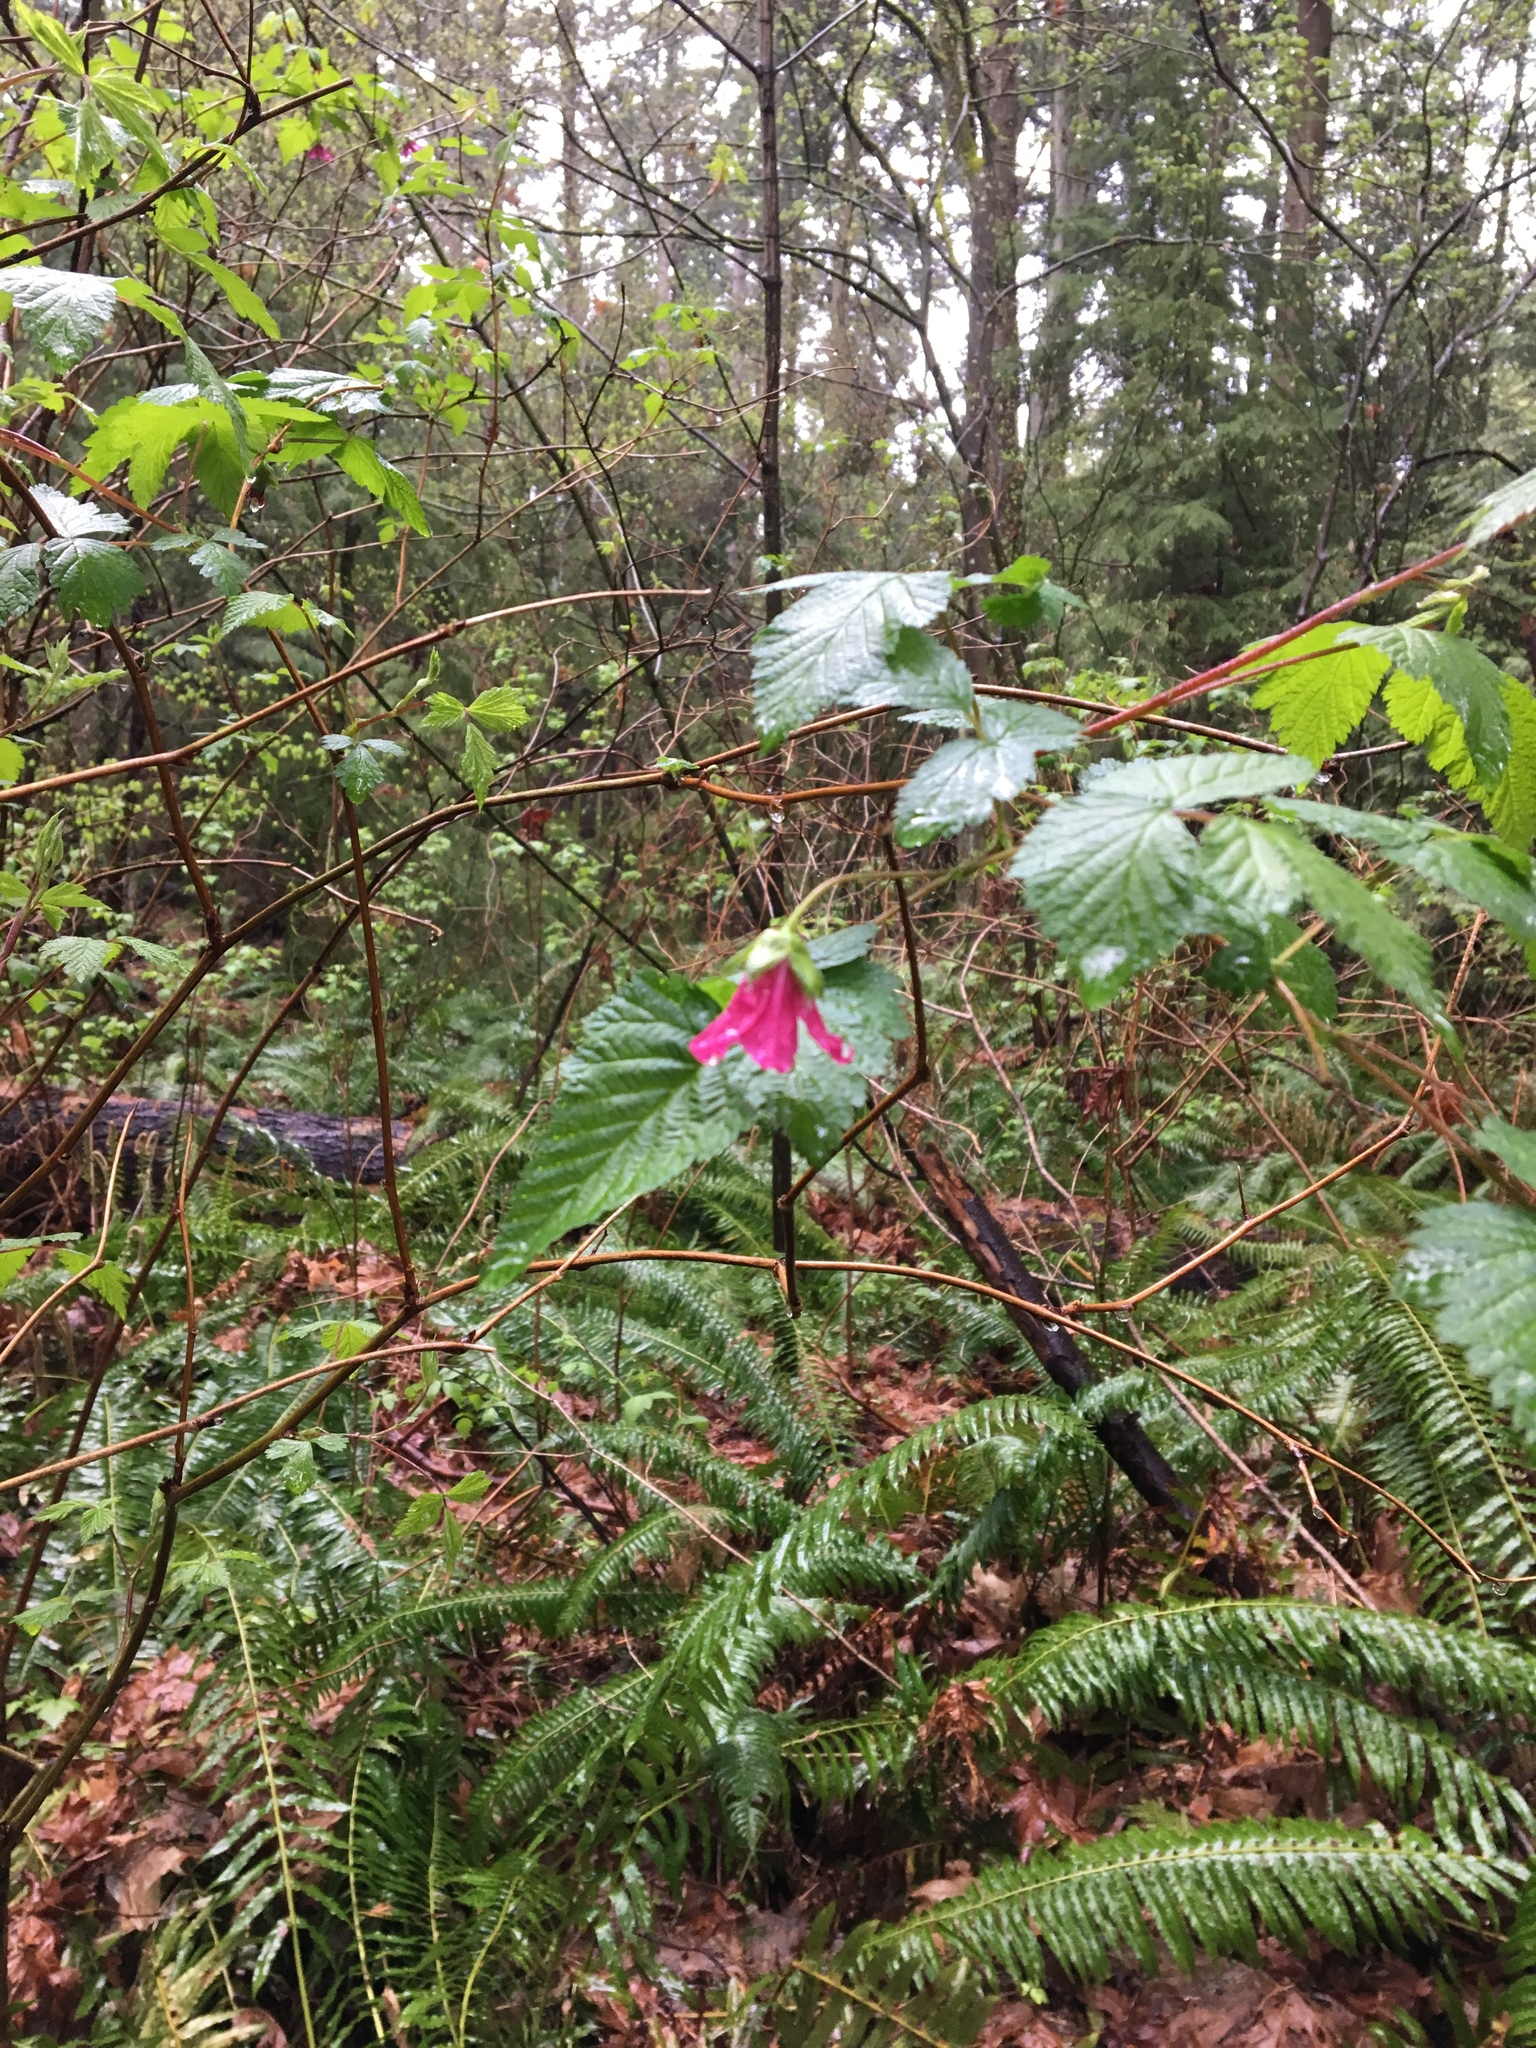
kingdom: Plantae
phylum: Tracheophyta
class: Magnoliopsida
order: Rosales
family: Rosaceae
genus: Rubus
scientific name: Rubus spectabilis
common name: Salmonberry
